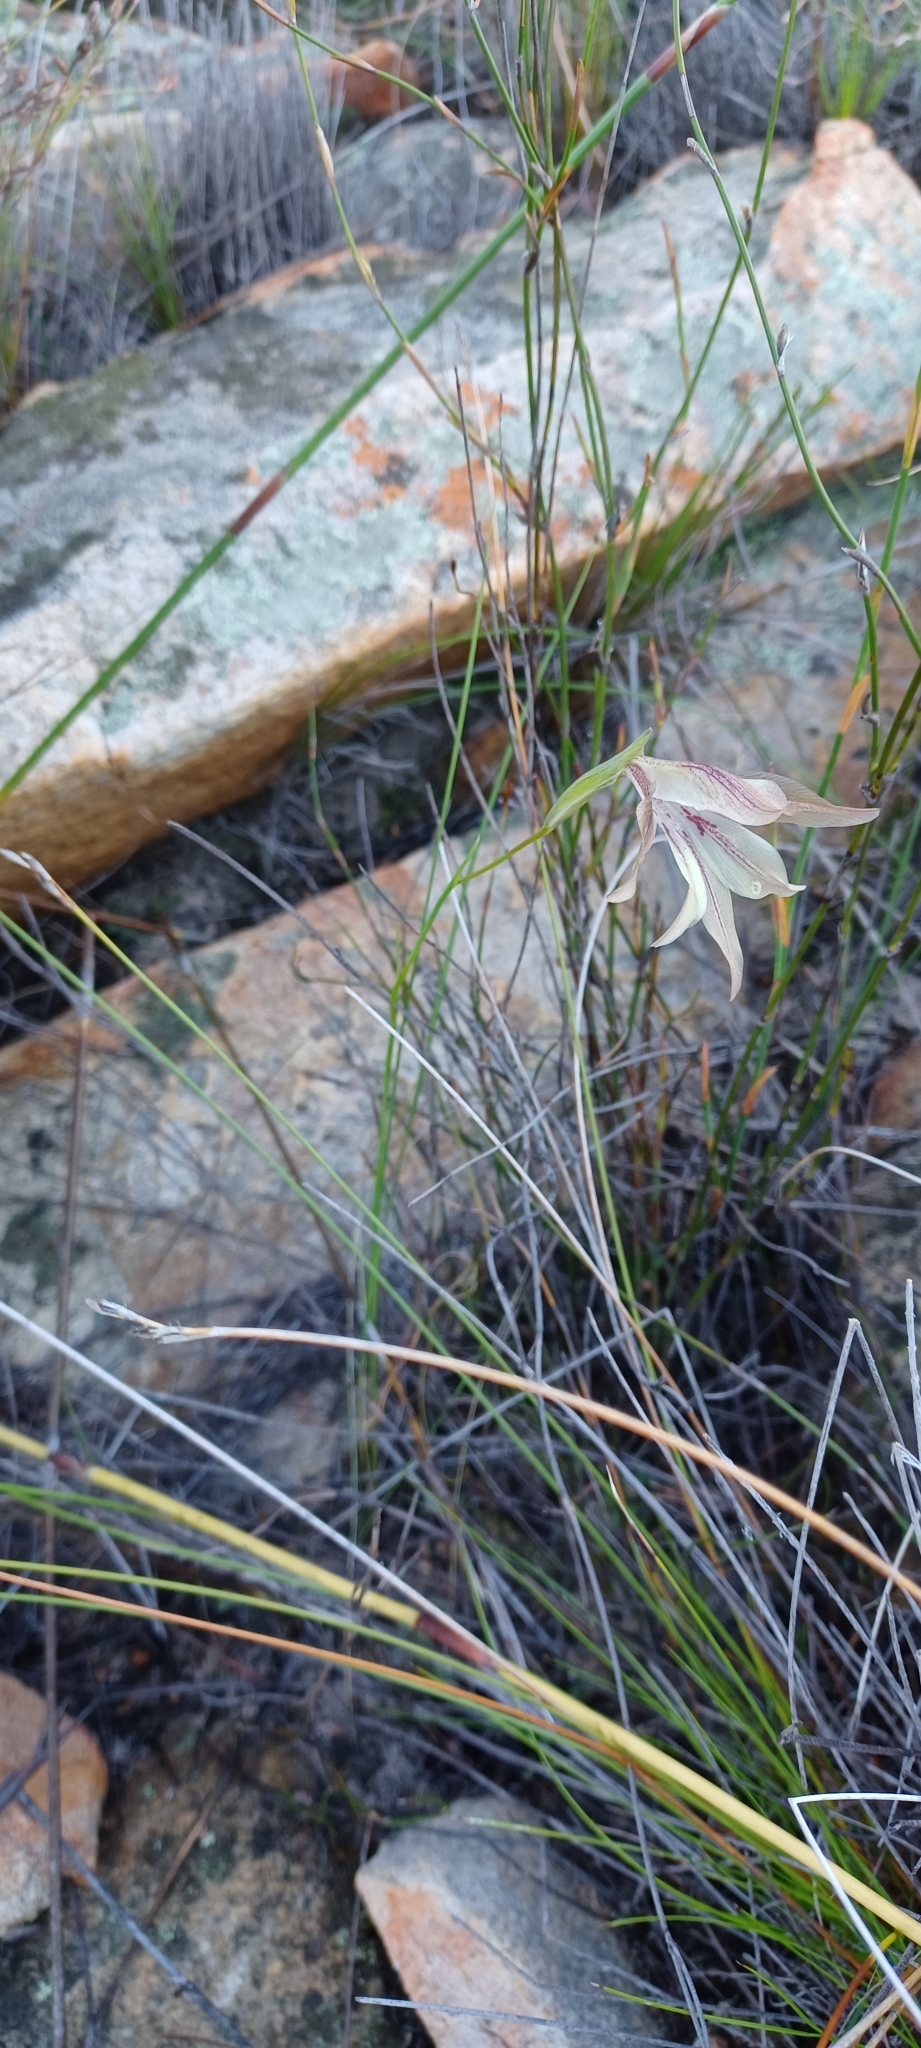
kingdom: Plantae
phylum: Tracheophyta
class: Liliopsida
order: Asparagales
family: Iridaceae
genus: Gladiolus
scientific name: Gladiolus hyalinus
